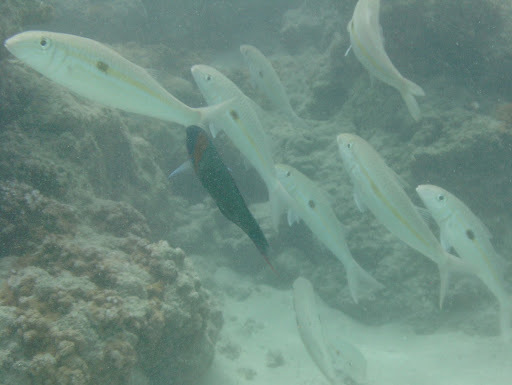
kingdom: Animalia
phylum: Chordata
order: Perciformes
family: Mullidae
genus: Mulloidichthys
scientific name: Mulloidichthys flavolineatus
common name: Yellowstripe goatfish
